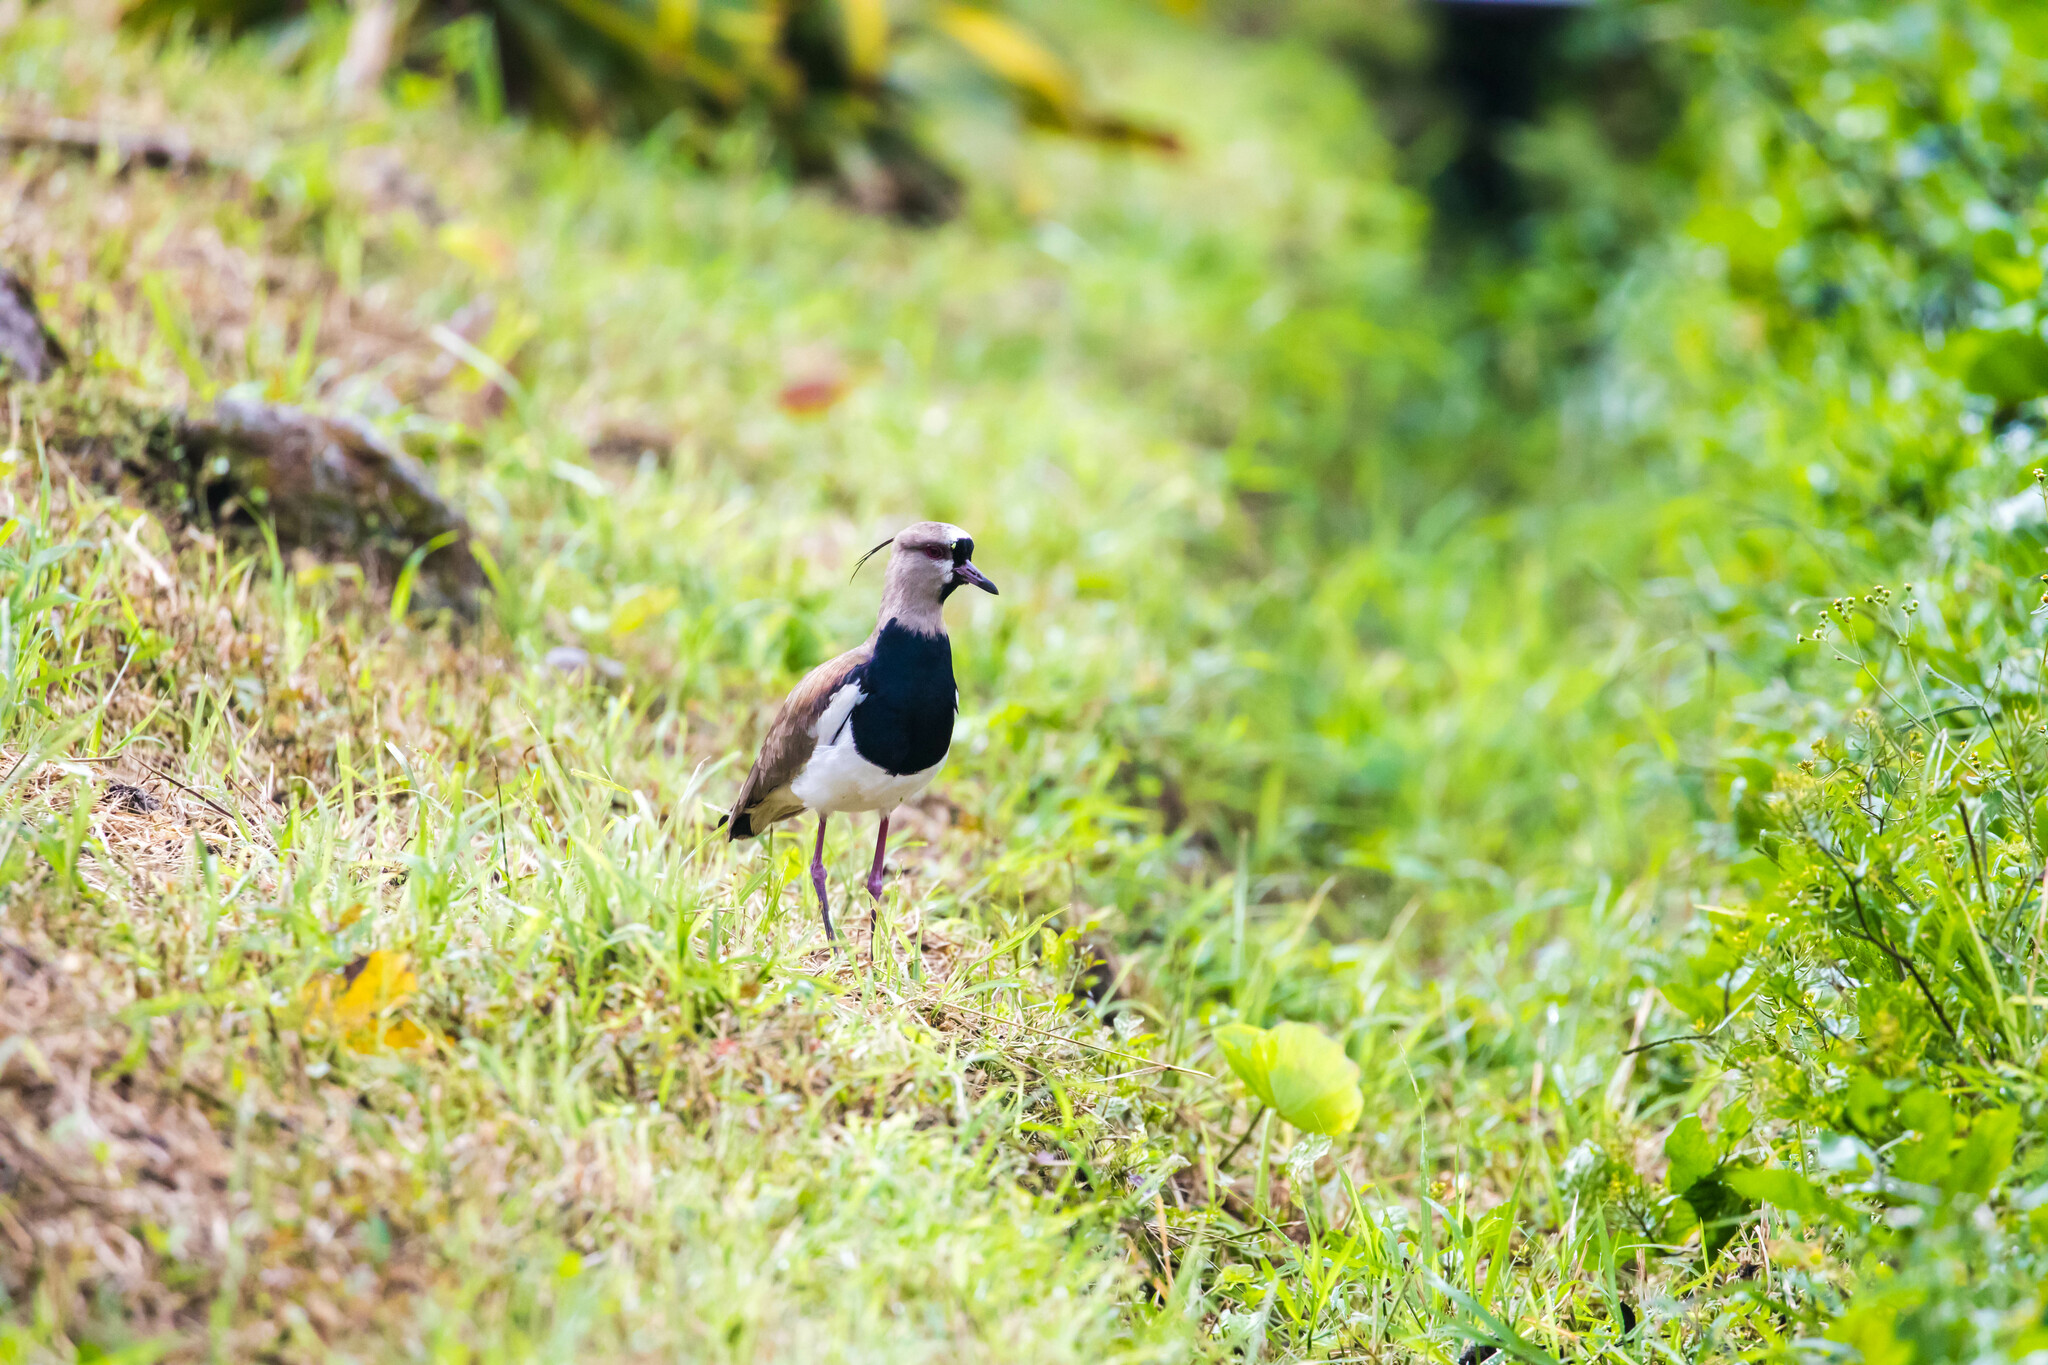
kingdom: Animalia
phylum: Chordata
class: Aves
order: Charadriiformes
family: Charadriidae
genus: Vanellus
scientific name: Vanellus chilensis
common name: Southern lapwing
